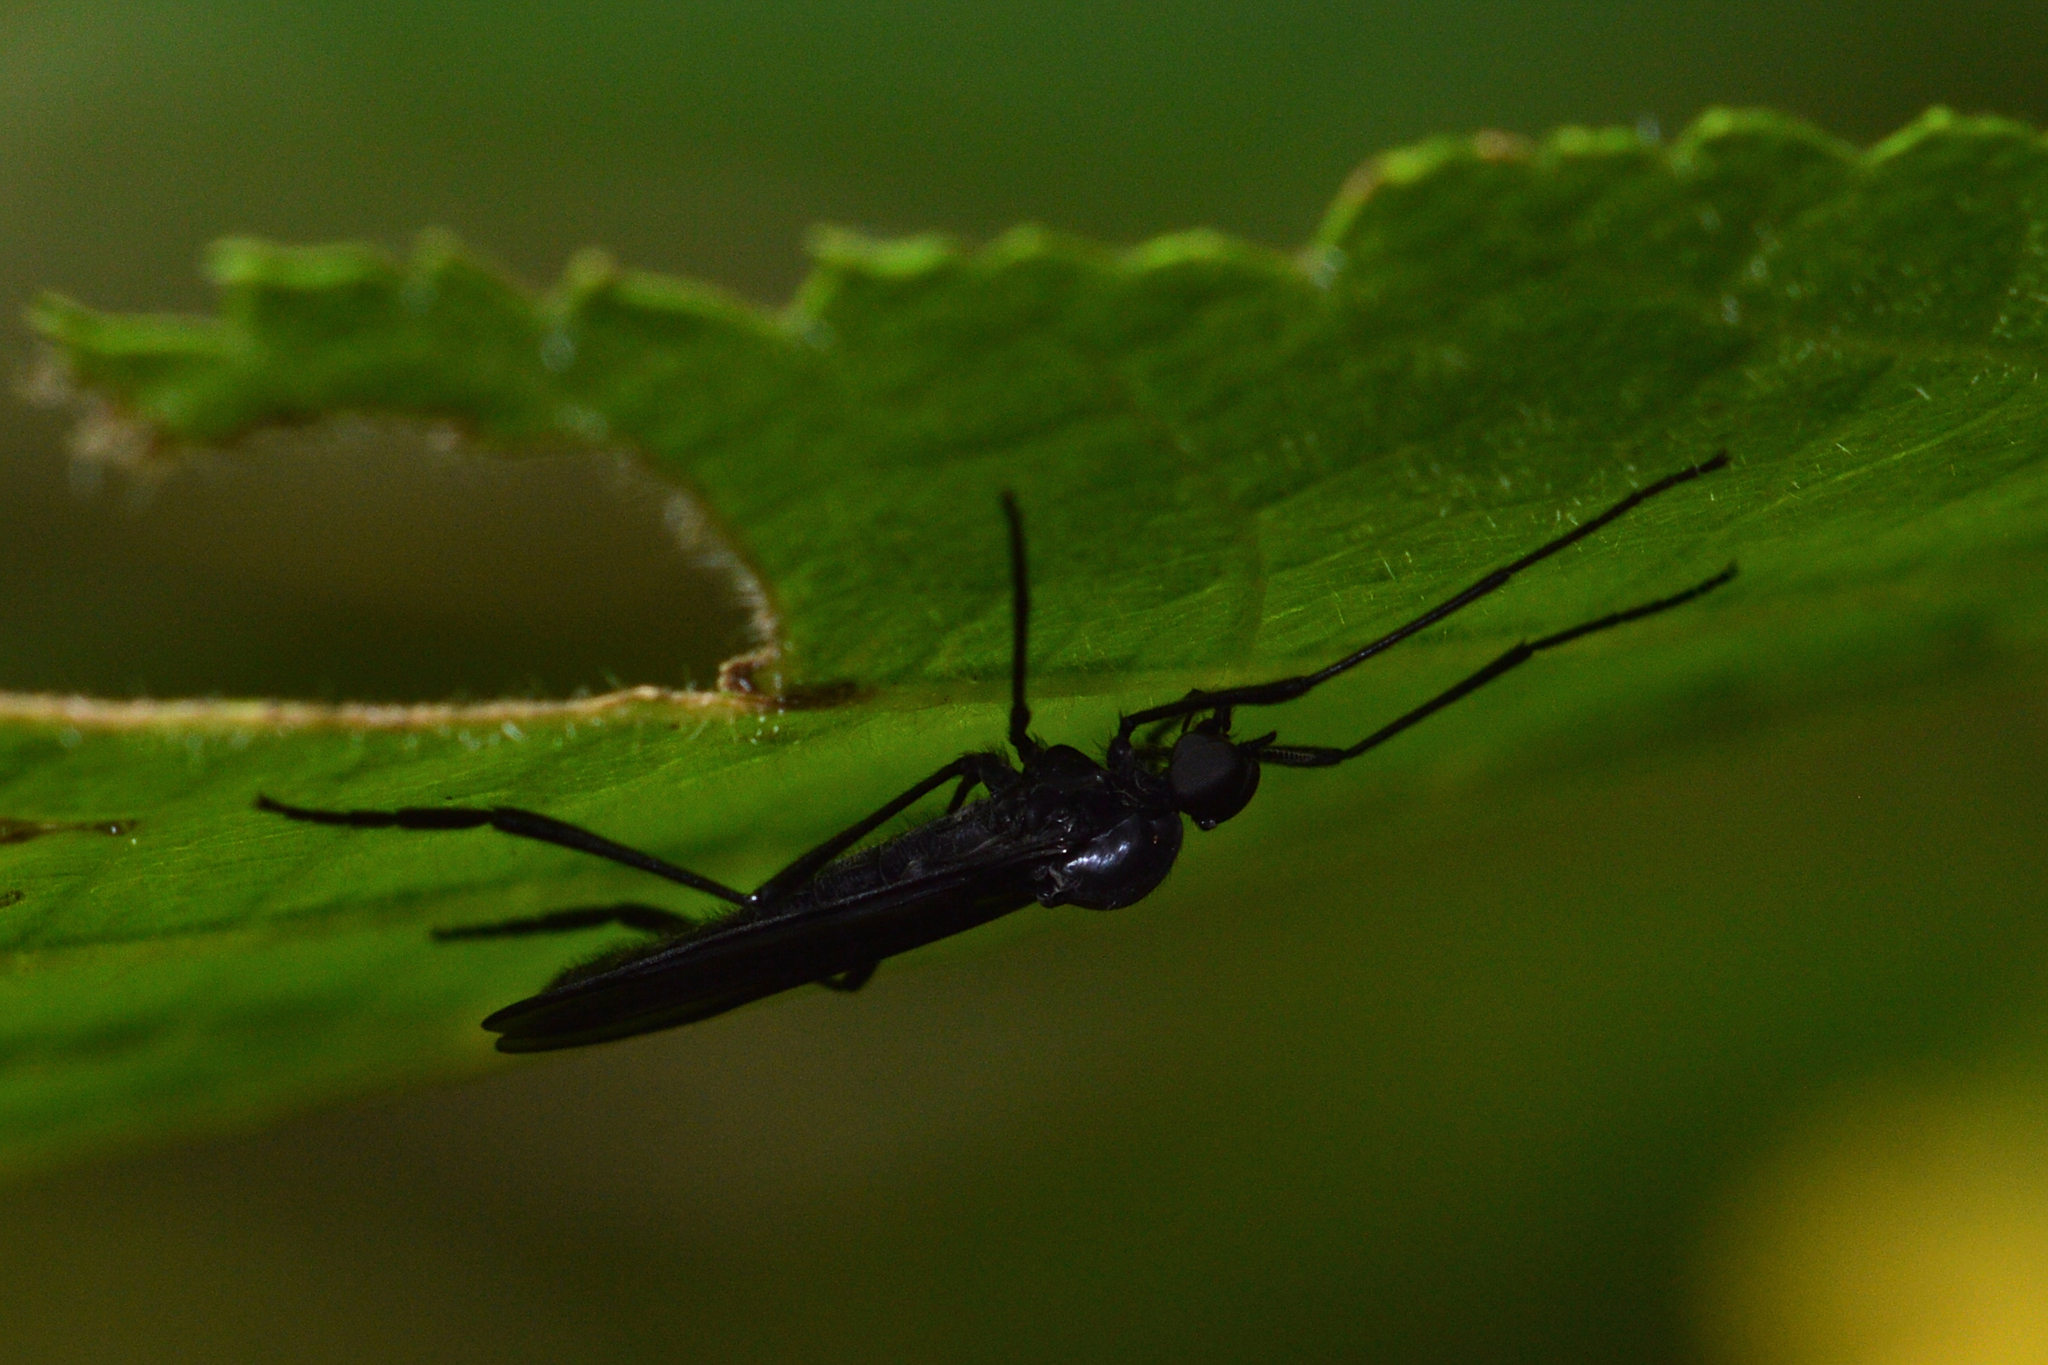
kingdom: Animalia
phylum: Arthropoda
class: Insecta
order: Diptera
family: Bibionidae
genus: Penthetria
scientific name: Penthetria heteroptera
